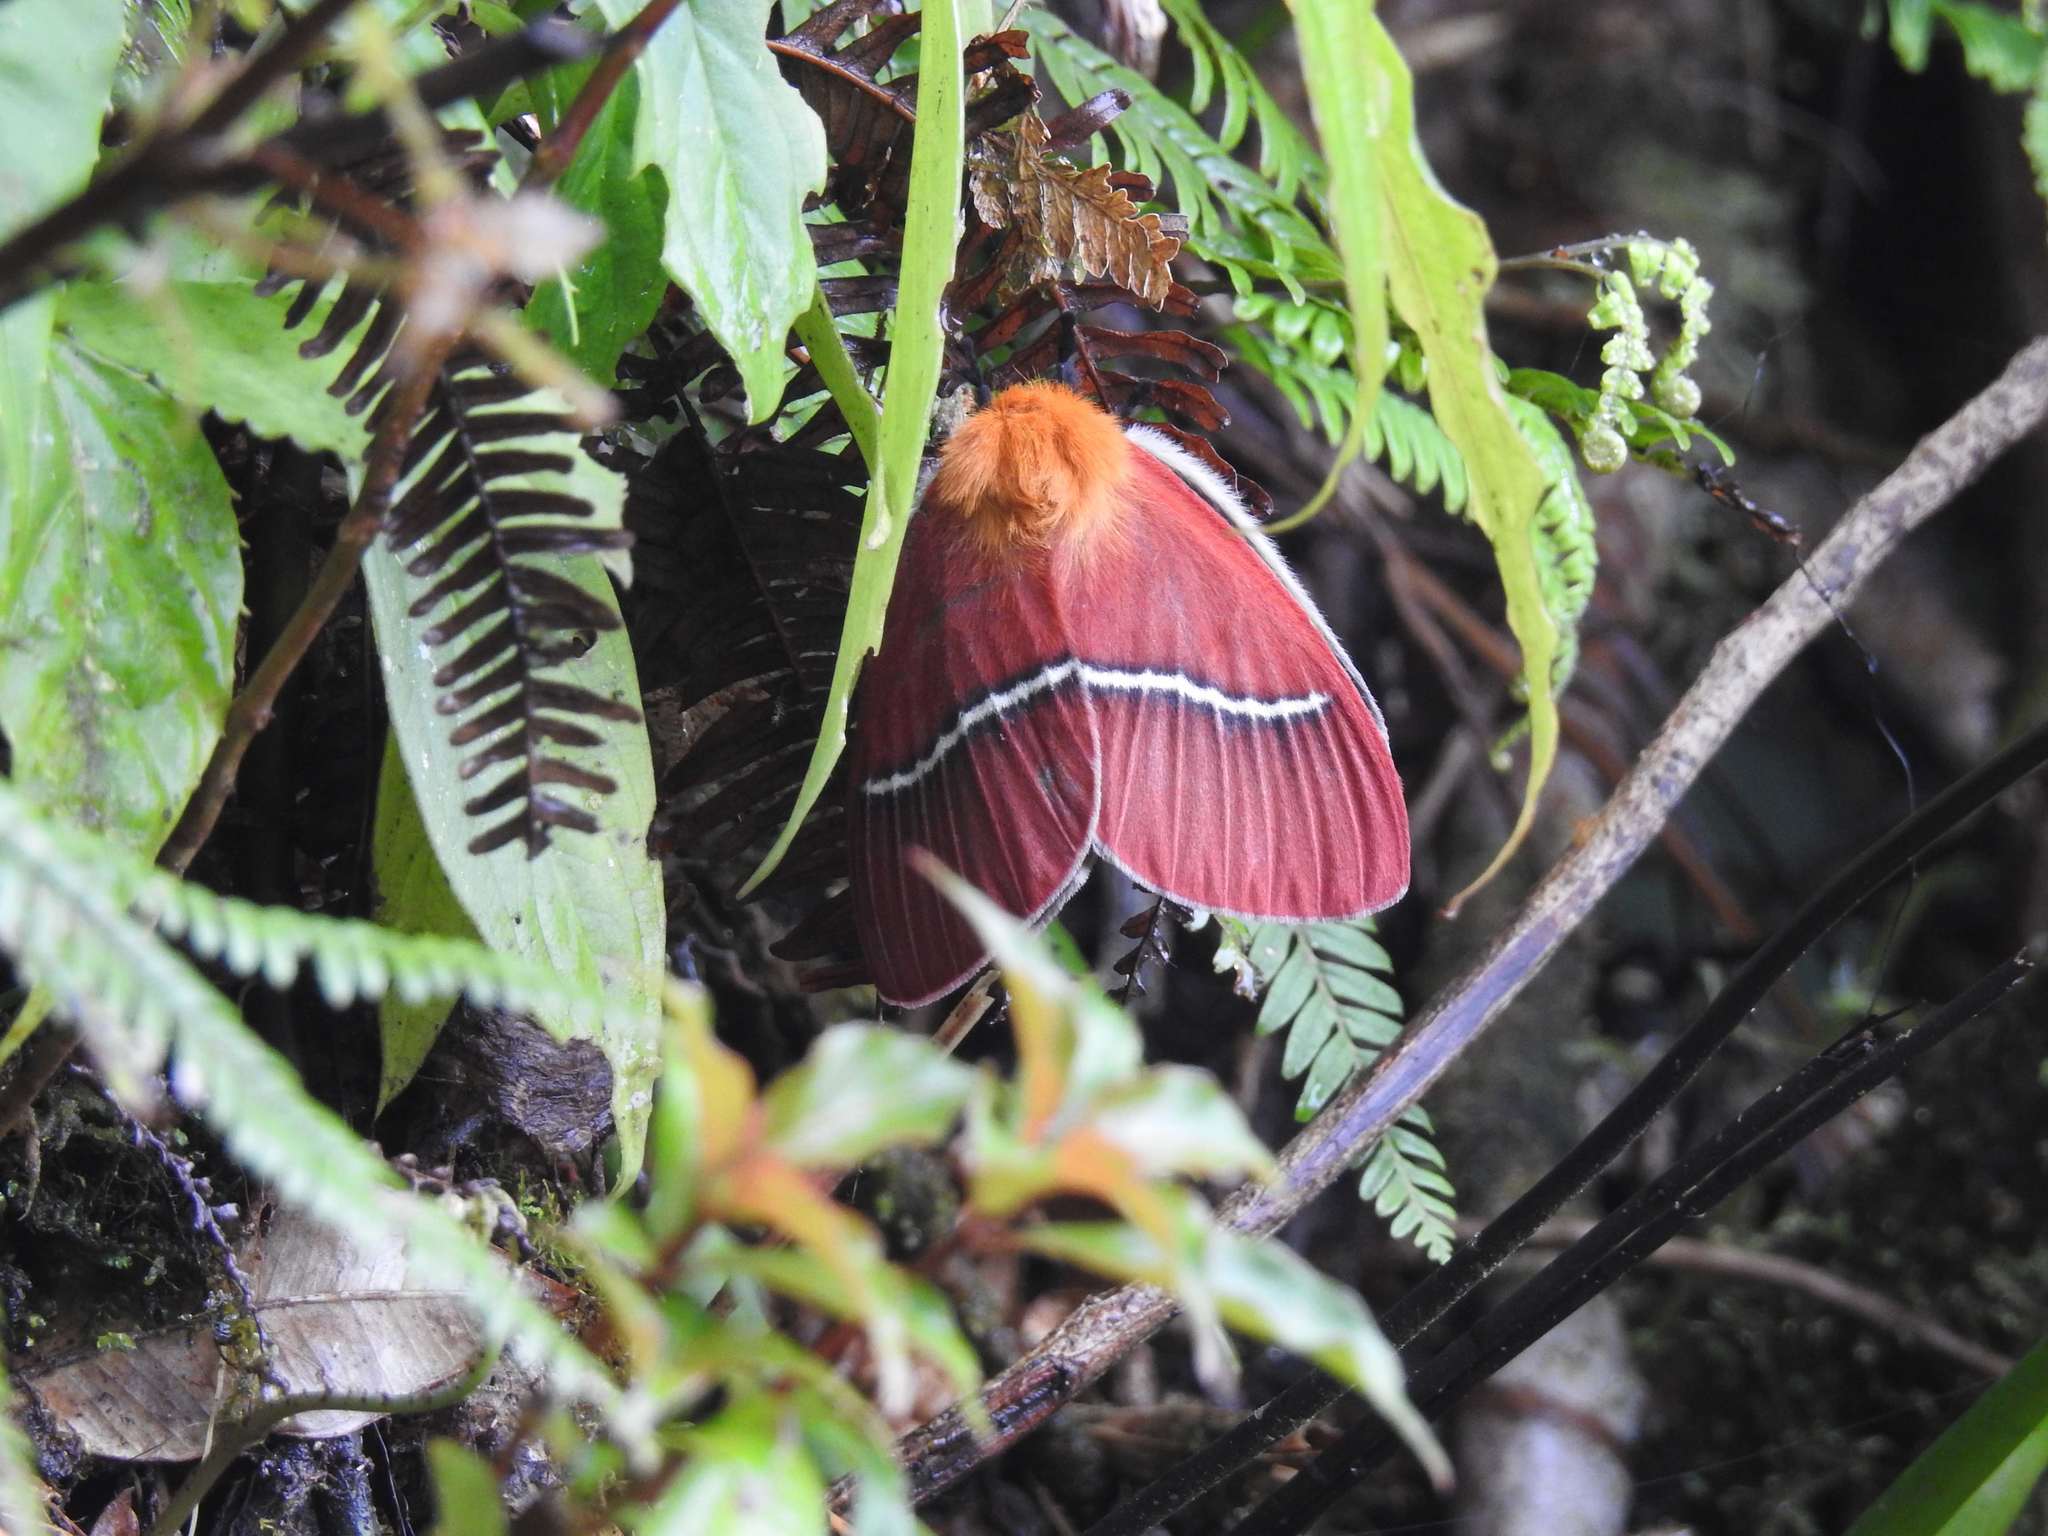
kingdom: Animalia
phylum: Arthropoda
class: Insecta
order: Lepidoptera
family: Saturniidae
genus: Pseudodirphia
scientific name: Pseudodirphia menander
